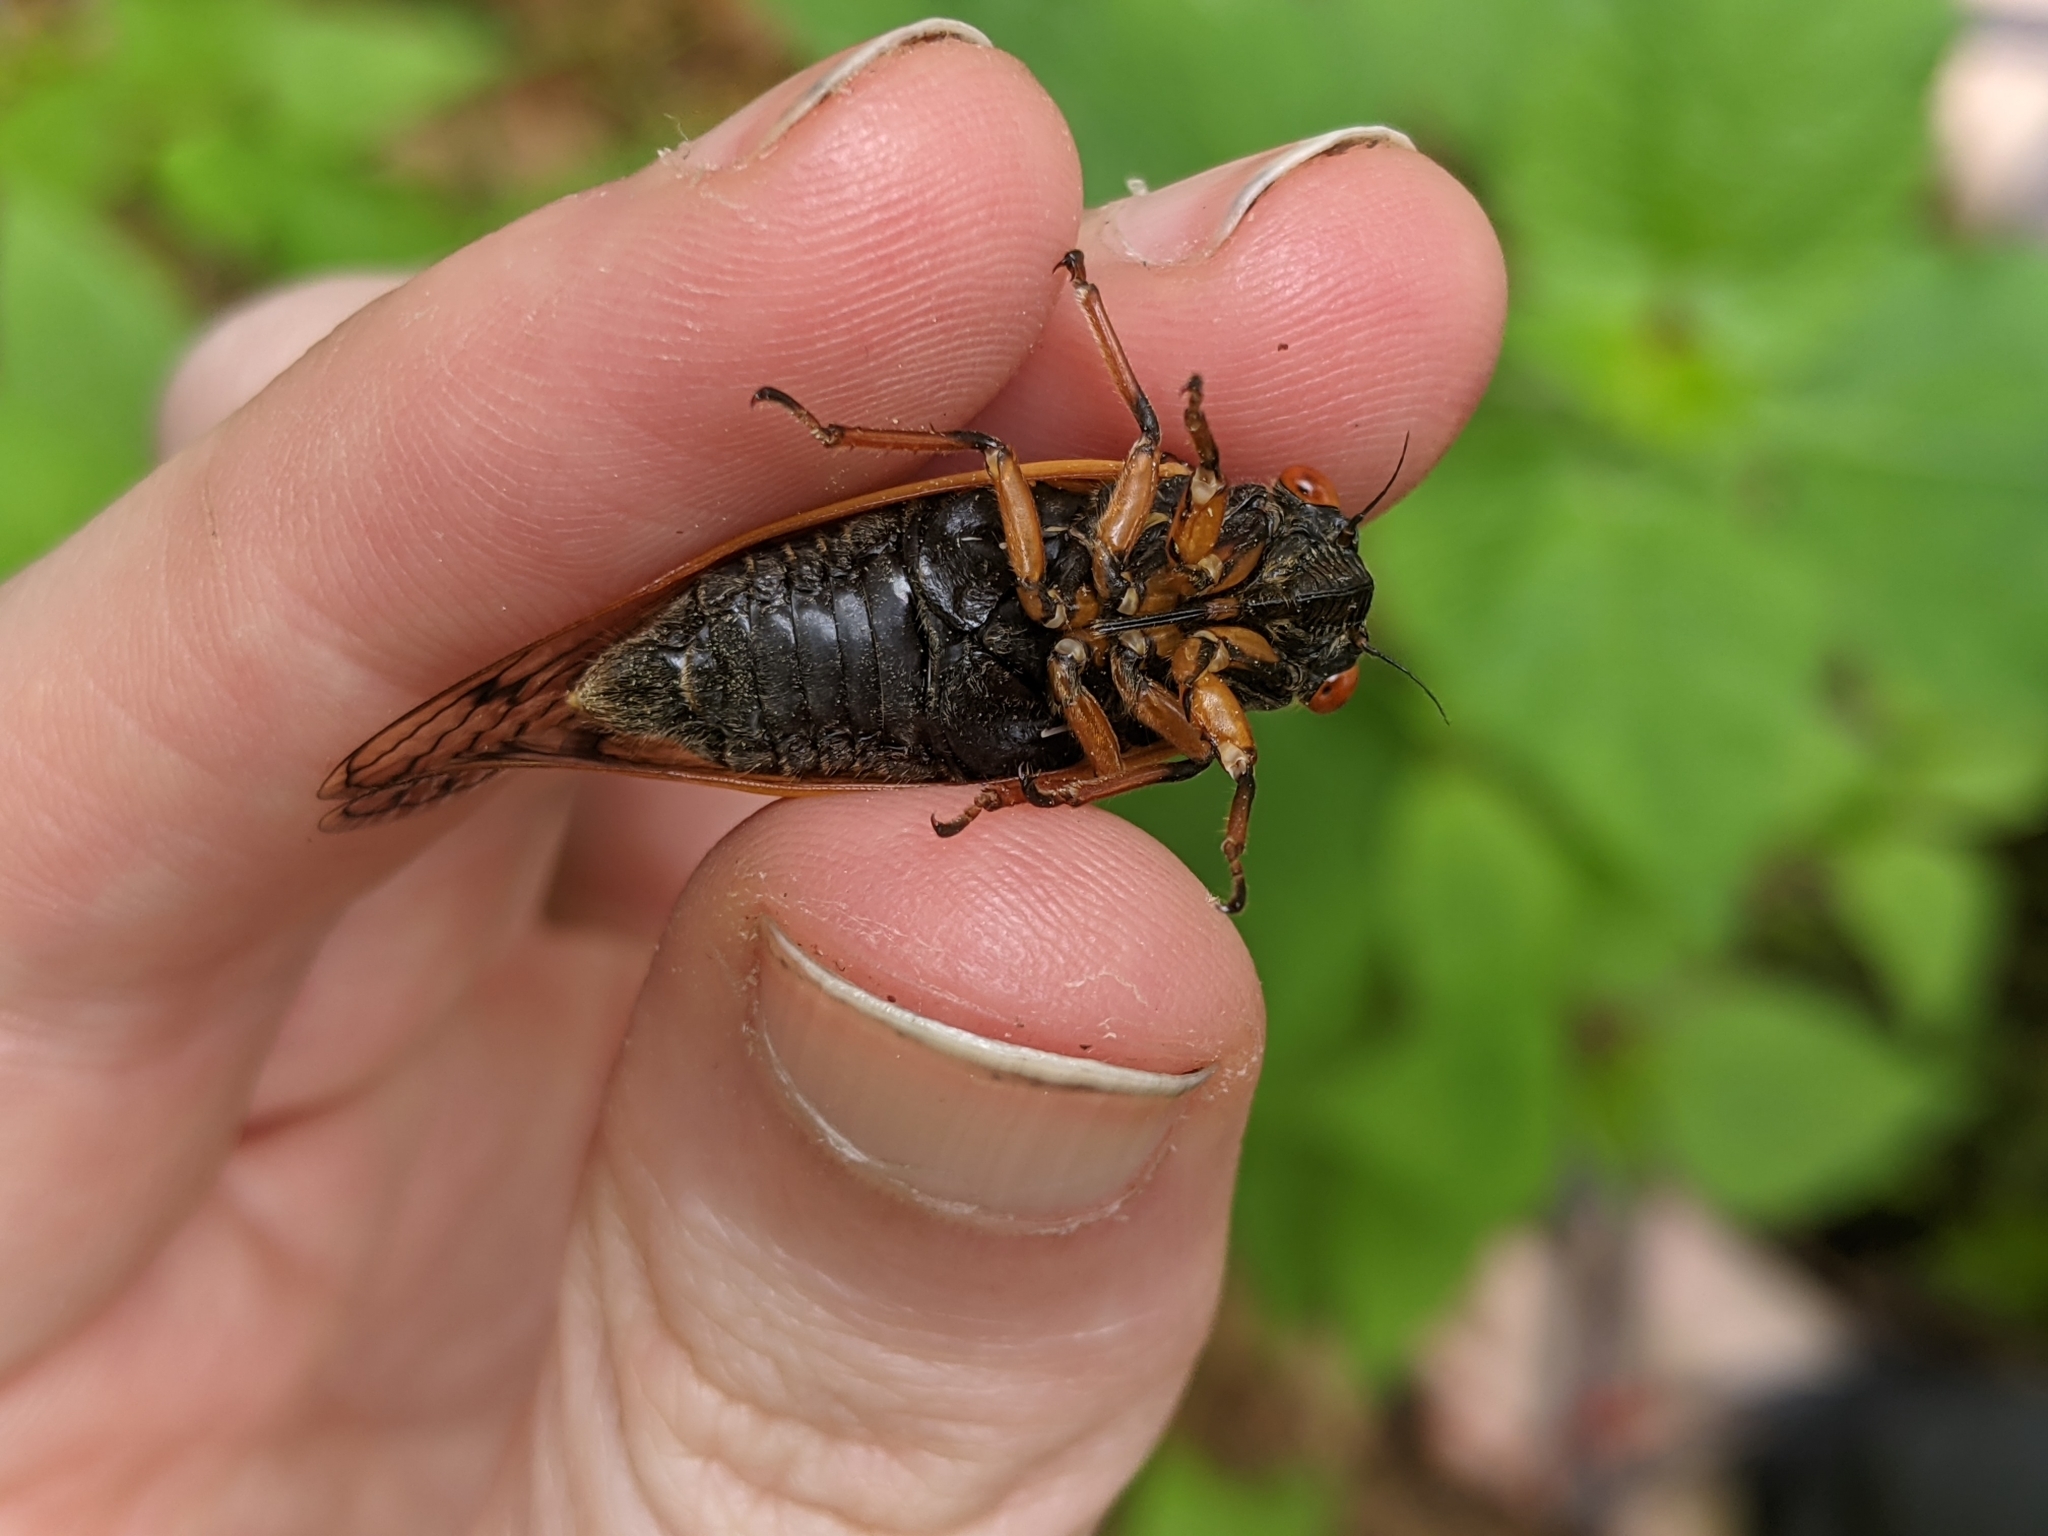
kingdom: Animalia
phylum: Arthropoda
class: Insecta
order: Hemiptera
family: Cicadidae
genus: Magicicada
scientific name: Magicicada cassini
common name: Cassin's 17-year cicada
